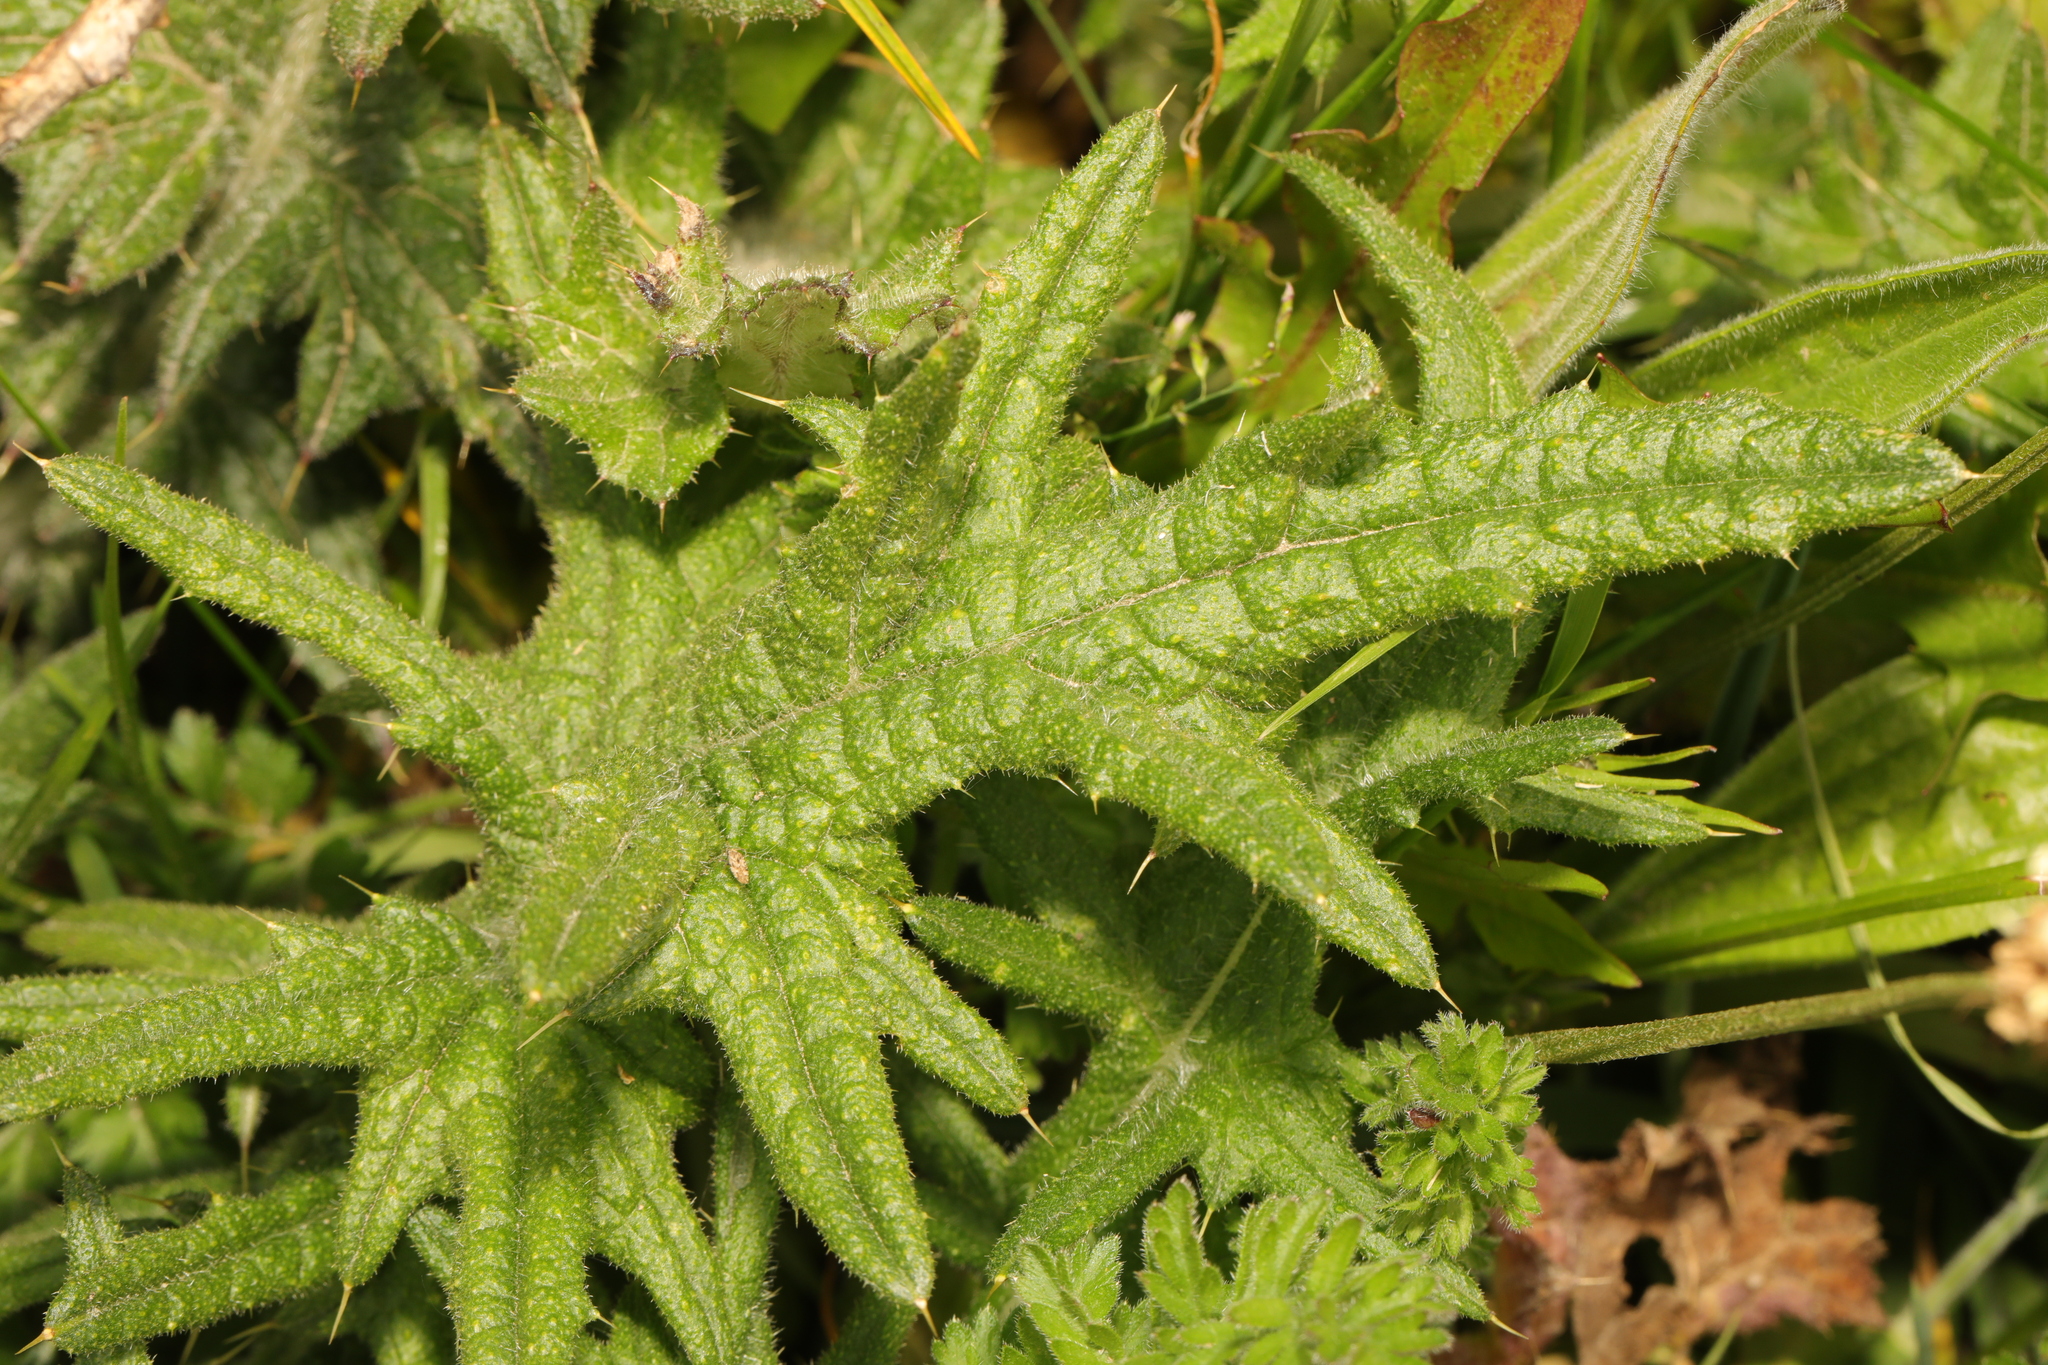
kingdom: Plantae
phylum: Tracheophyta
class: Magnoliopsida
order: Asterales
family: Asteraceae
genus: Cirsium
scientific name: Cirsium vulgare
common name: Bull thistle
